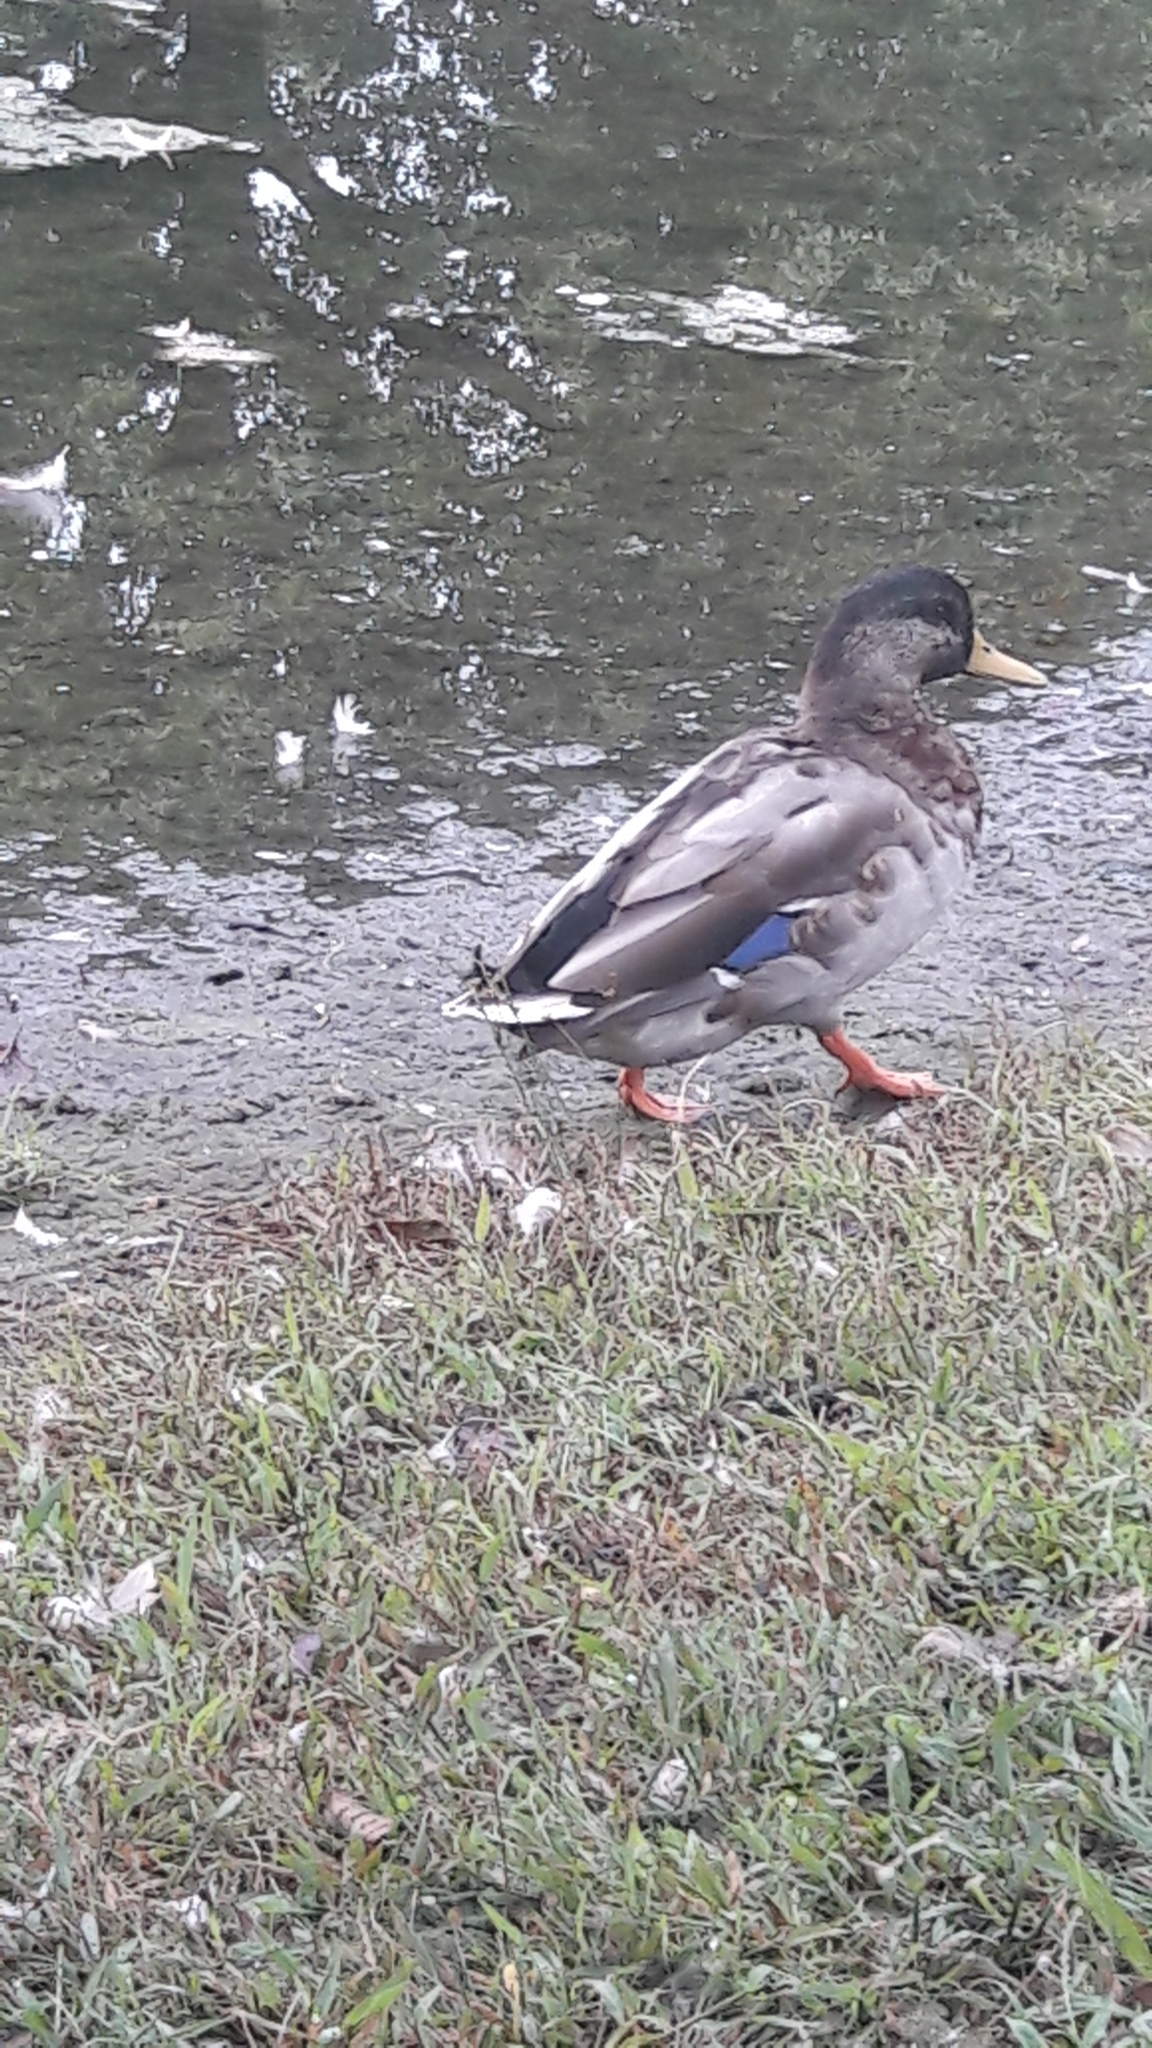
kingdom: Animalia
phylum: Chordata
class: Aves
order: Anseriformes
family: Anatidae
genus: Anas
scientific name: Anas platyrhynchos
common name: Mallard
